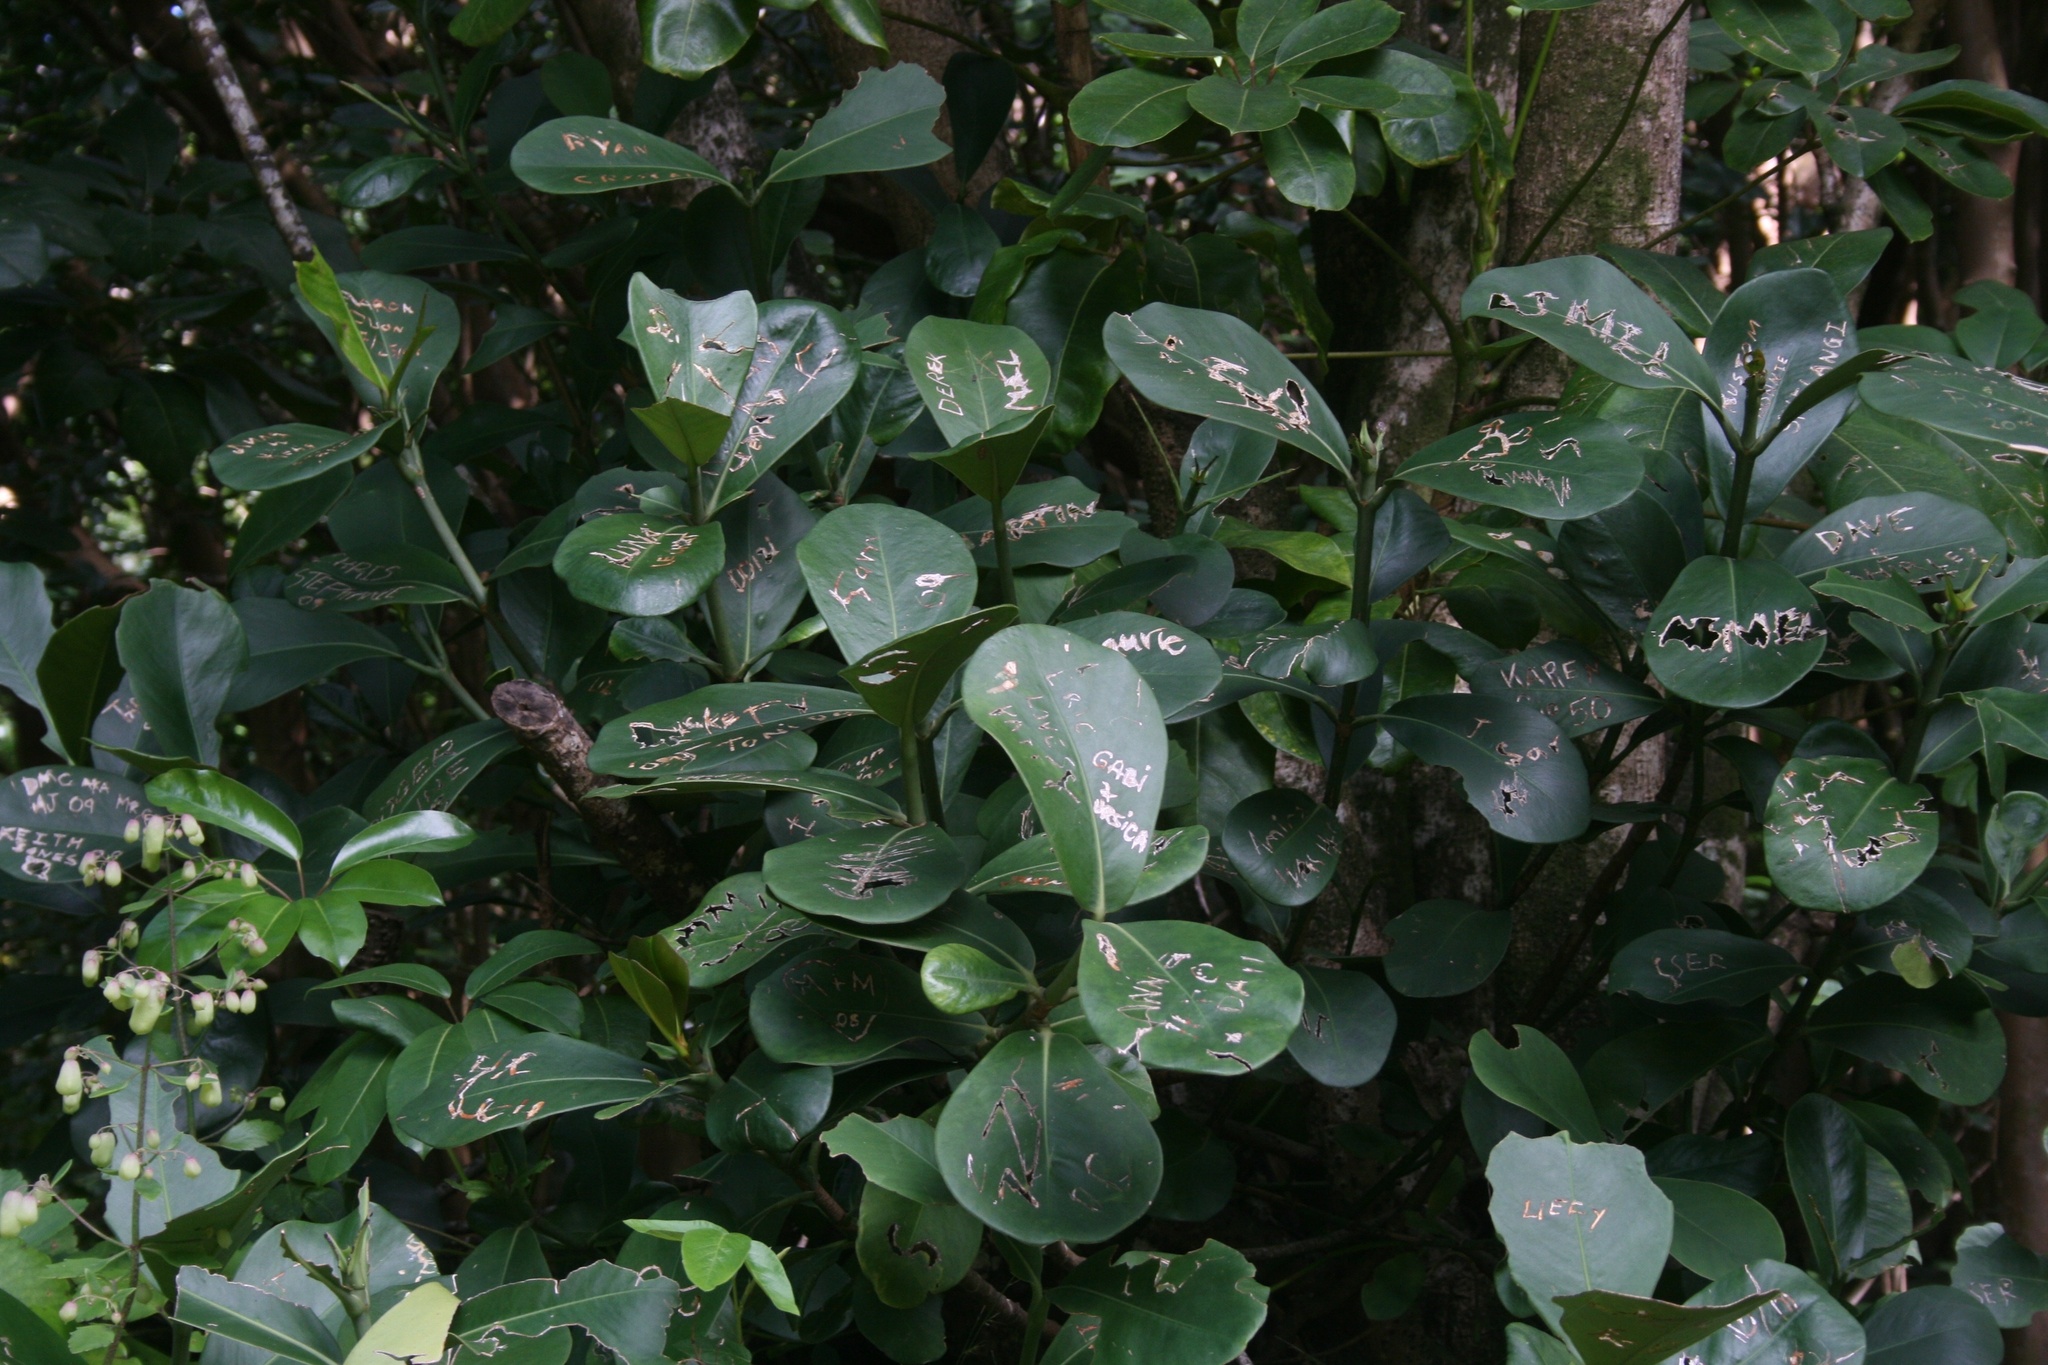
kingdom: Plantae
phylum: Tracheophyta
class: Magnoliopsida
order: Malpighiales
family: Clusiaceae
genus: Clusia
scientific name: Clusia rosea
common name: Scotch attorney
